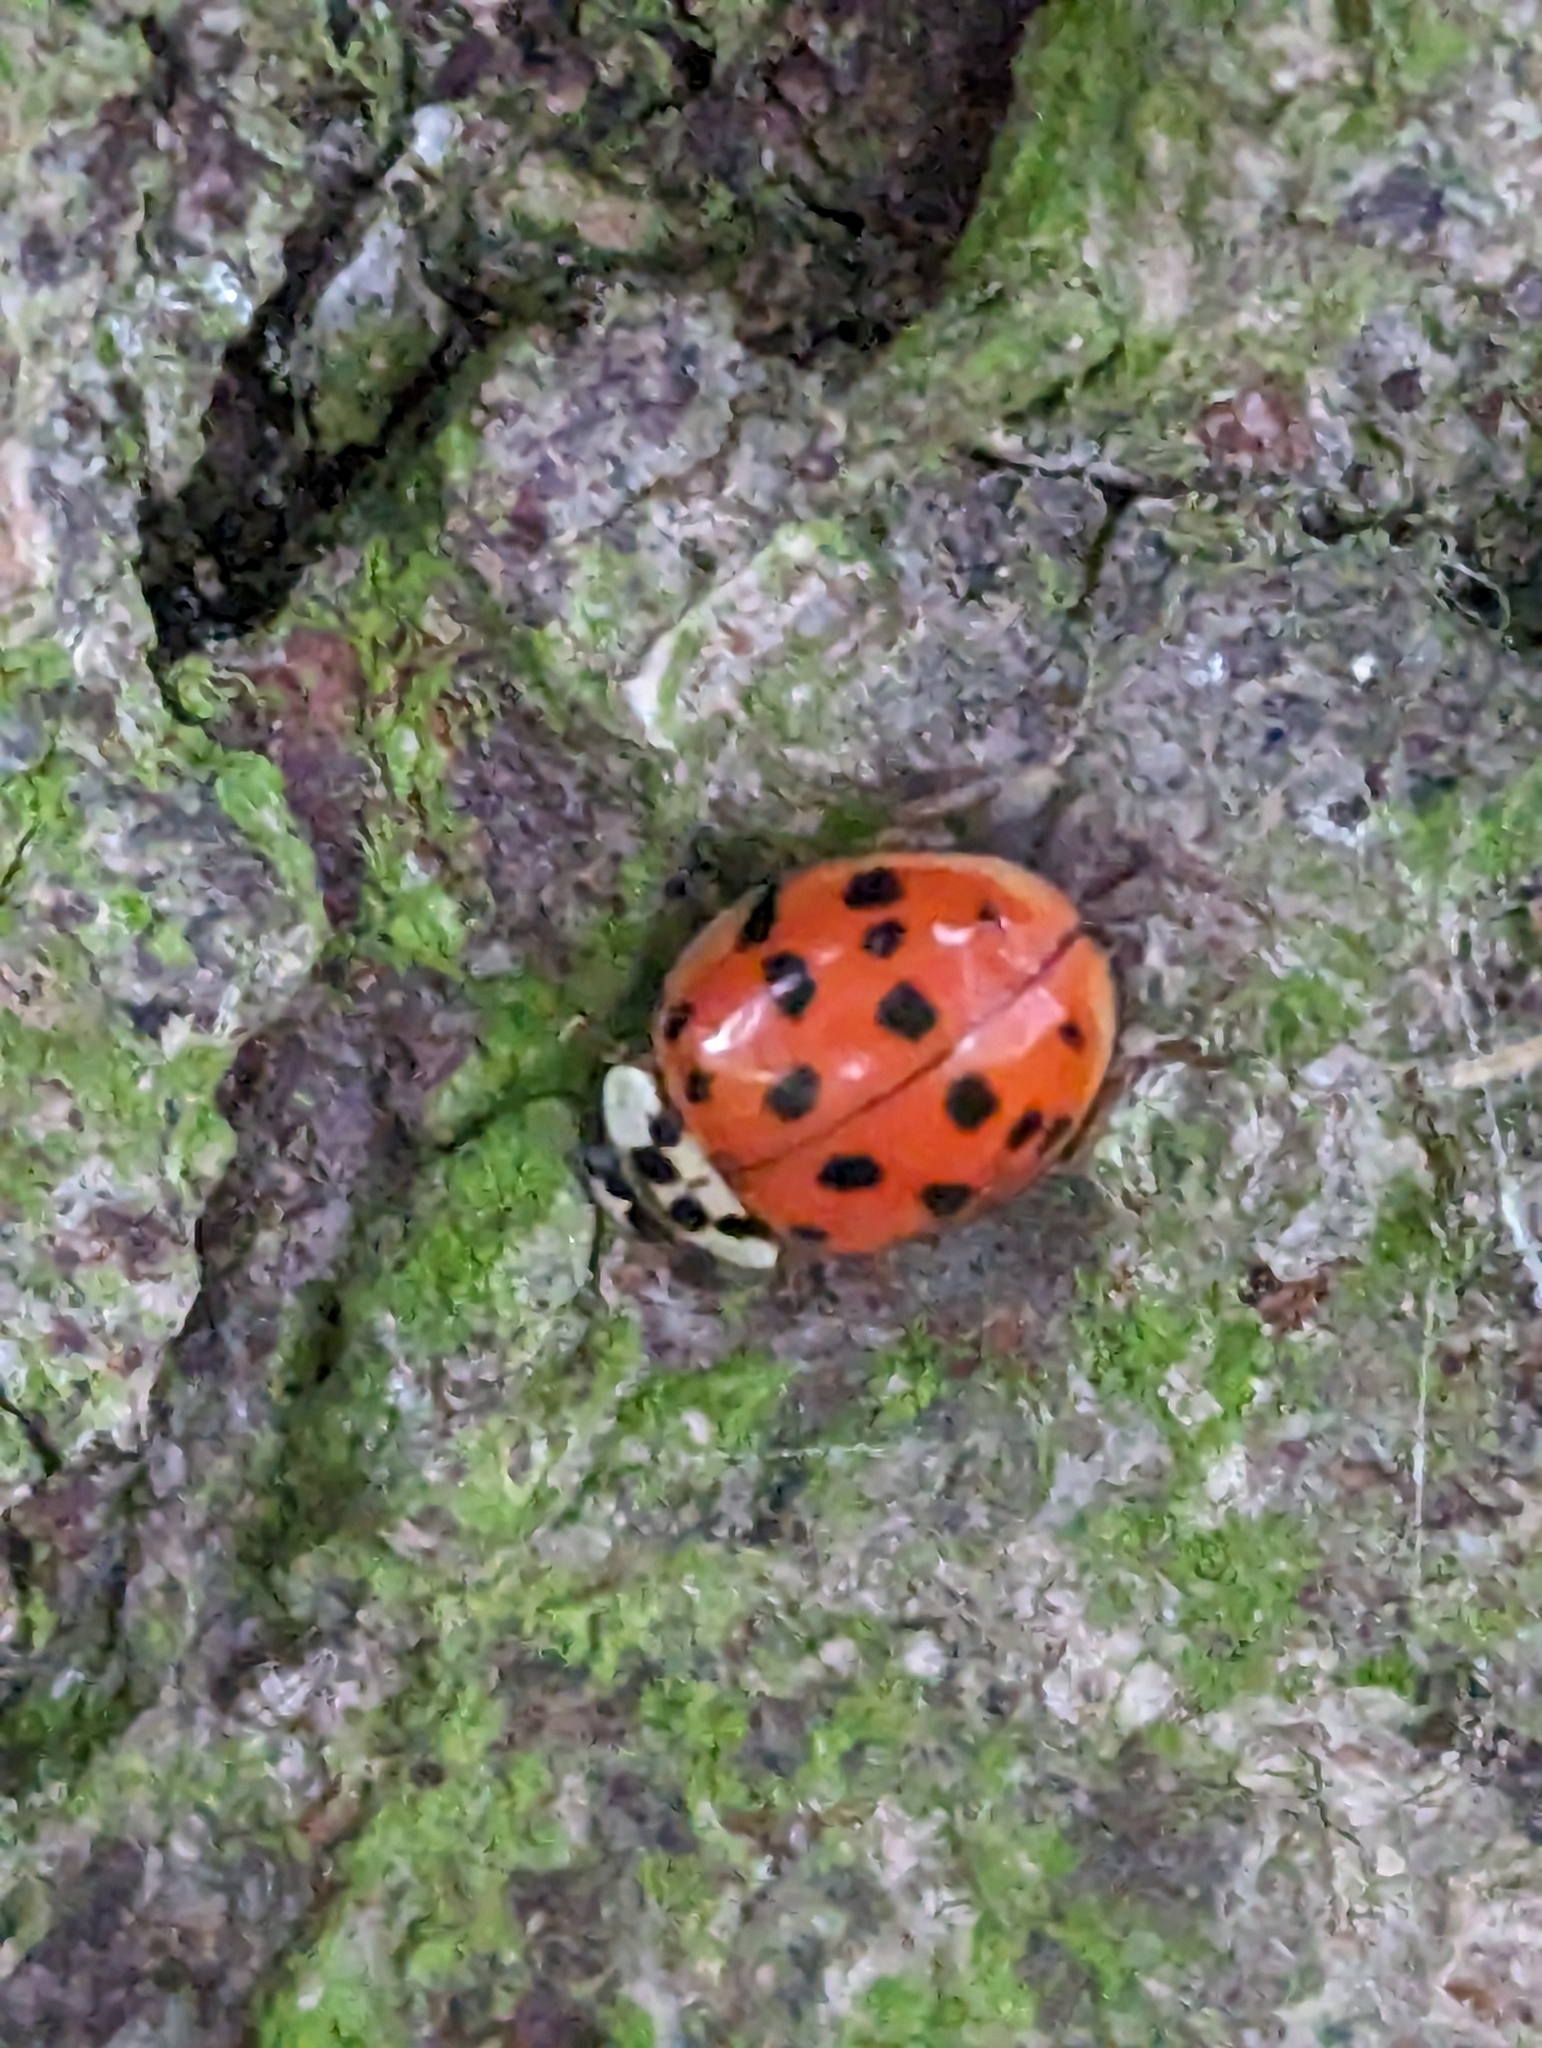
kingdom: Animalia
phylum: Arthropoda
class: Insecta
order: Coleoptera
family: Coccinellidae
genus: Harmonia
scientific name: Harmonia axyridis
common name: Harlequin ladybird
